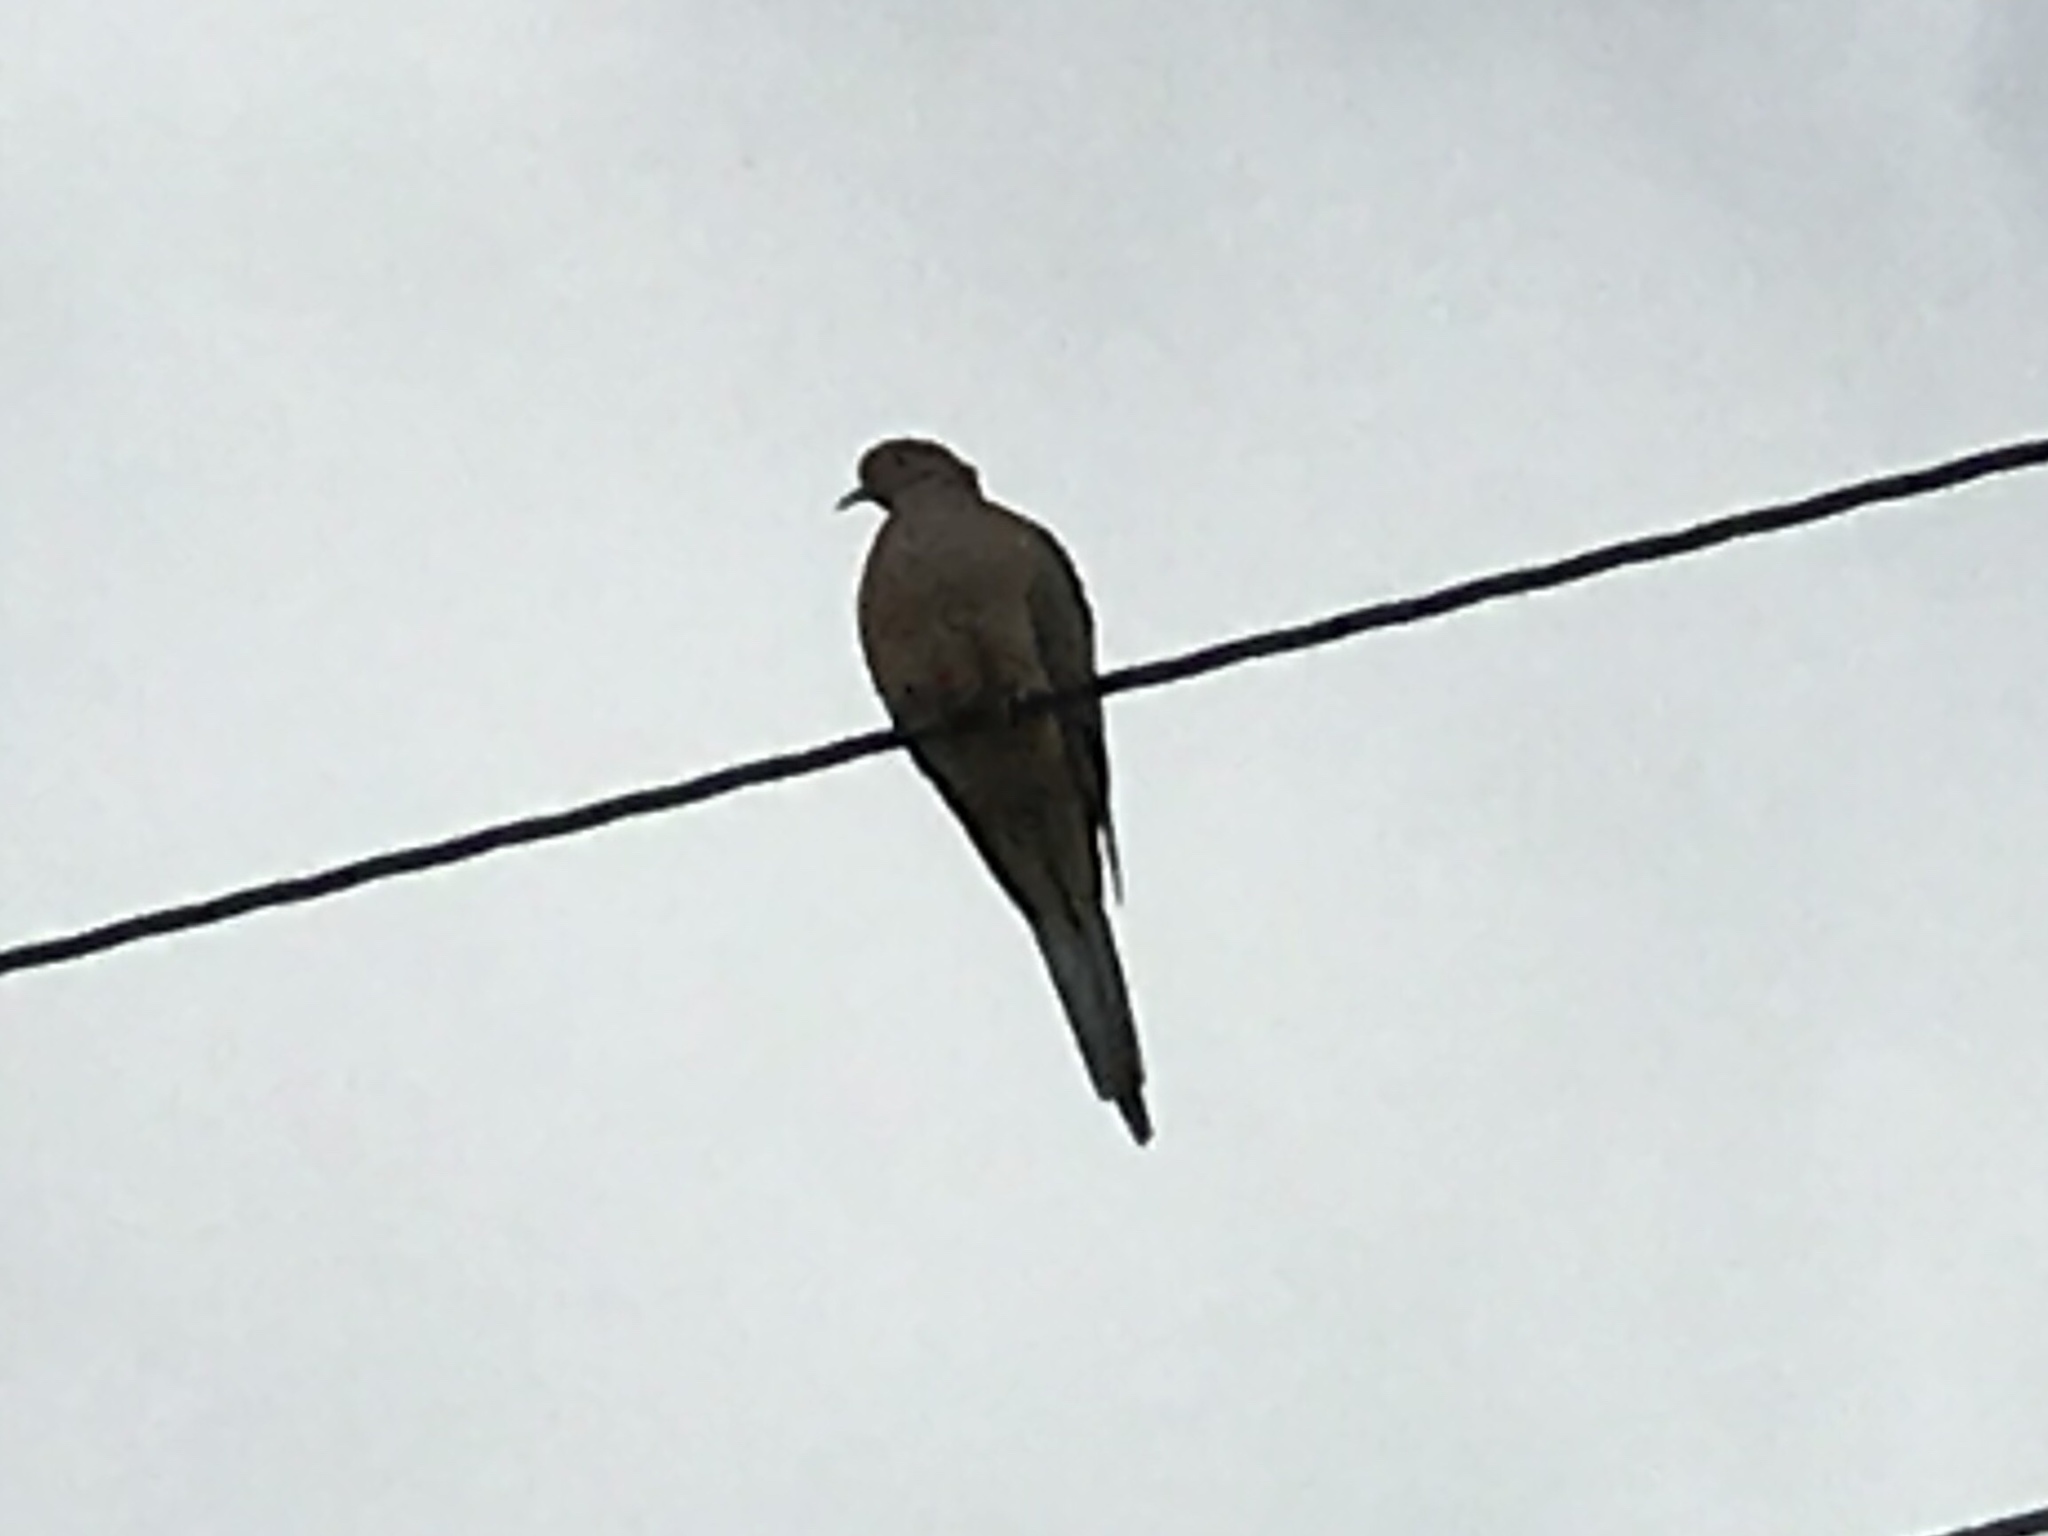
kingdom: Animalia
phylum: Chordata
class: Aves
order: Columbiformes
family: Columbidae
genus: Zenaida
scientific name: Zenaida macroura
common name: Mourning dove
